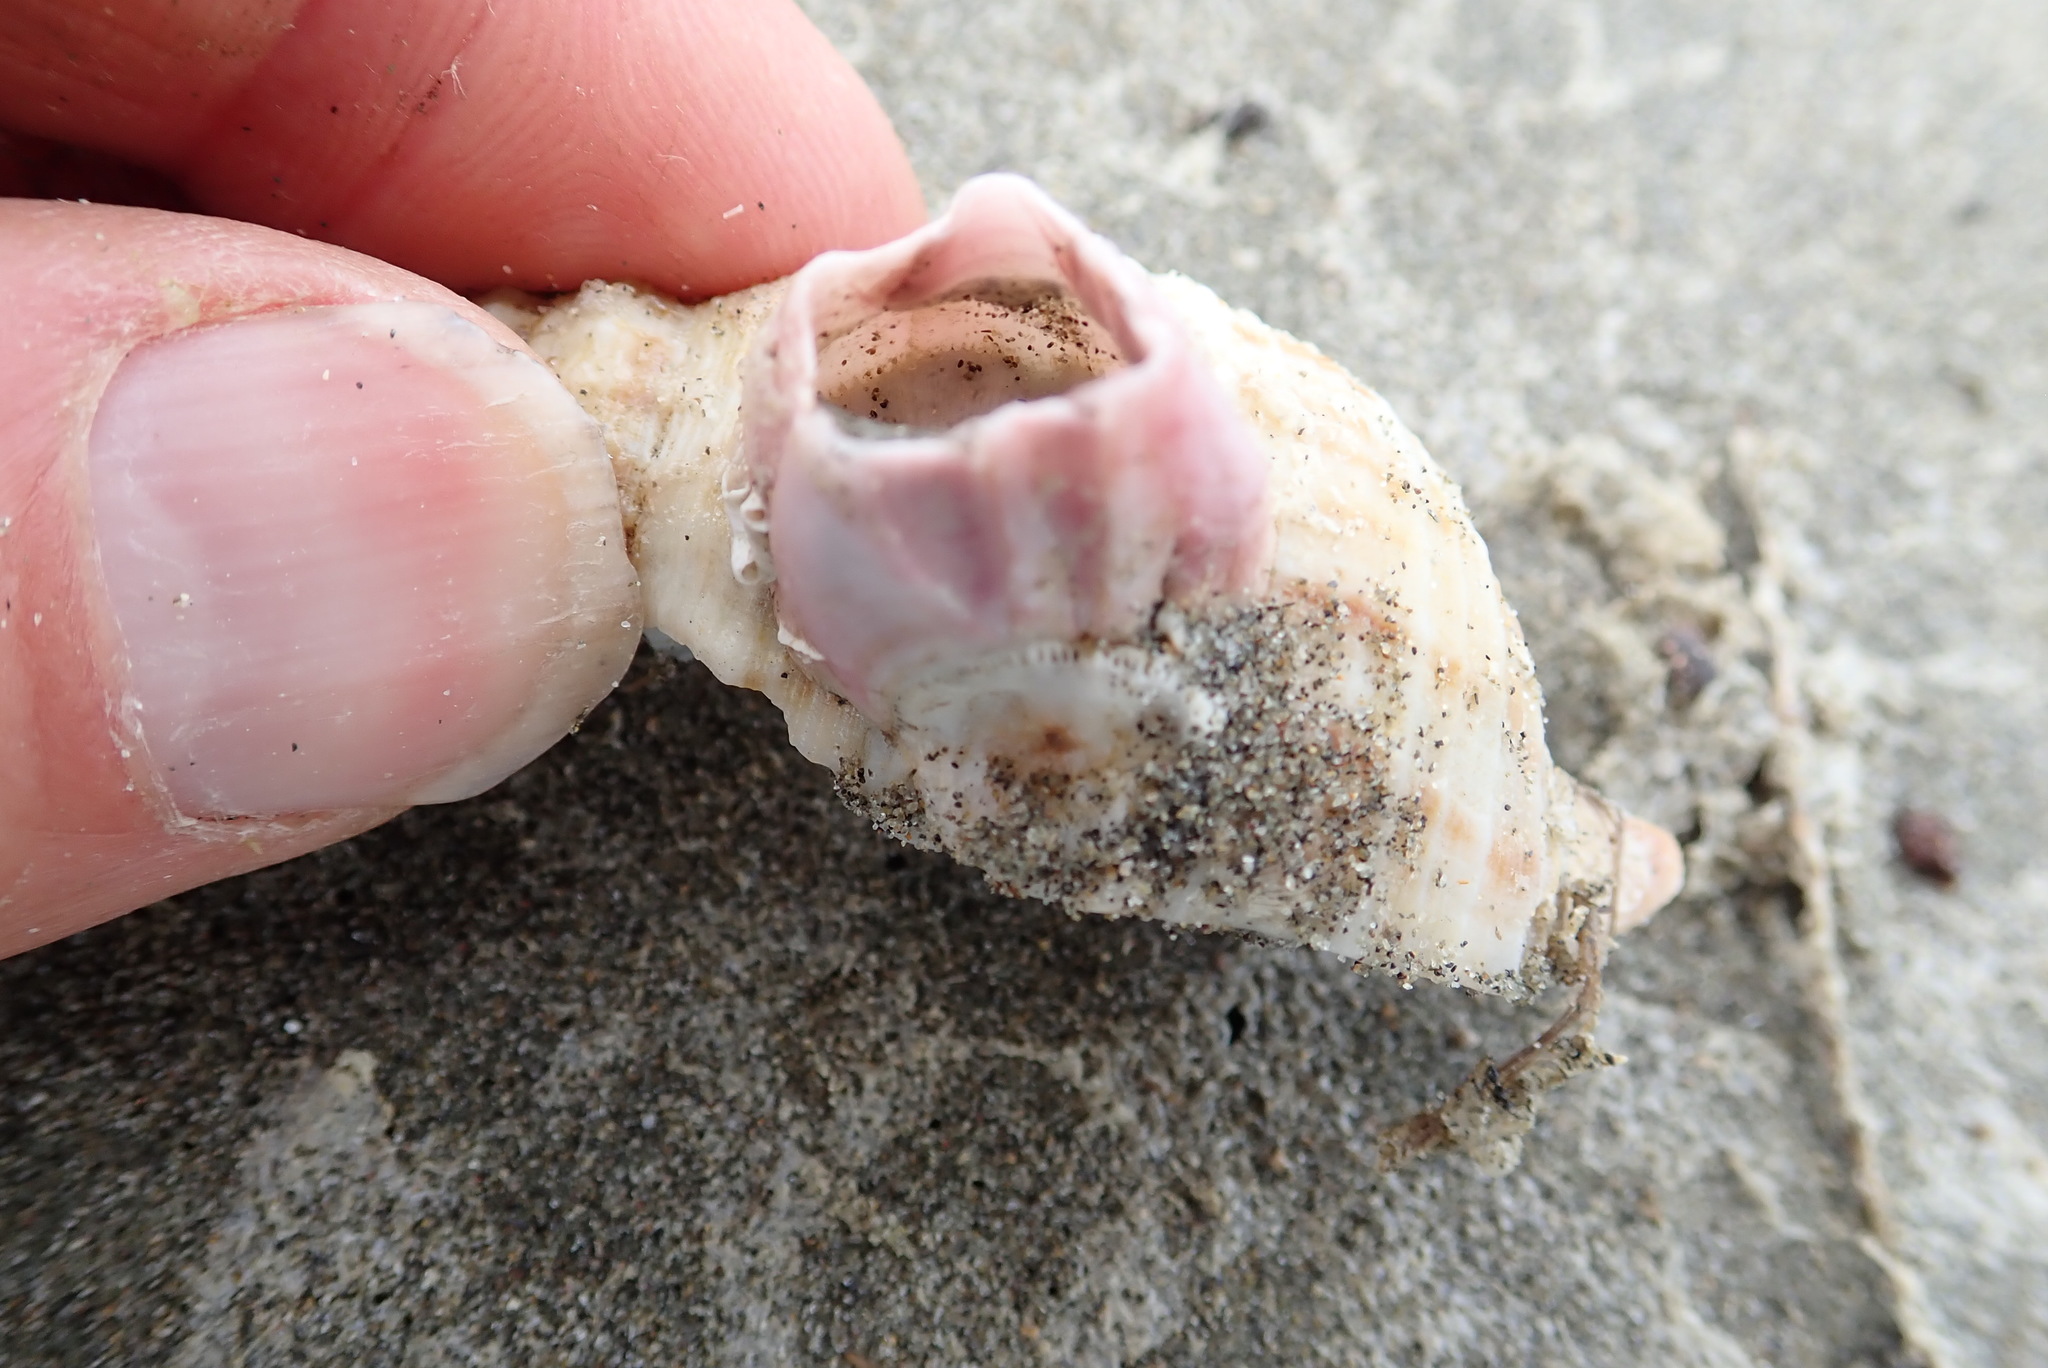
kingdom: Animalia
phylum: Arthropoda
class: Maxillopoda
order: Sessilia
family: Balanidae
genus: Notomegabalanus
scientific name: Notomegabalanus decorus
